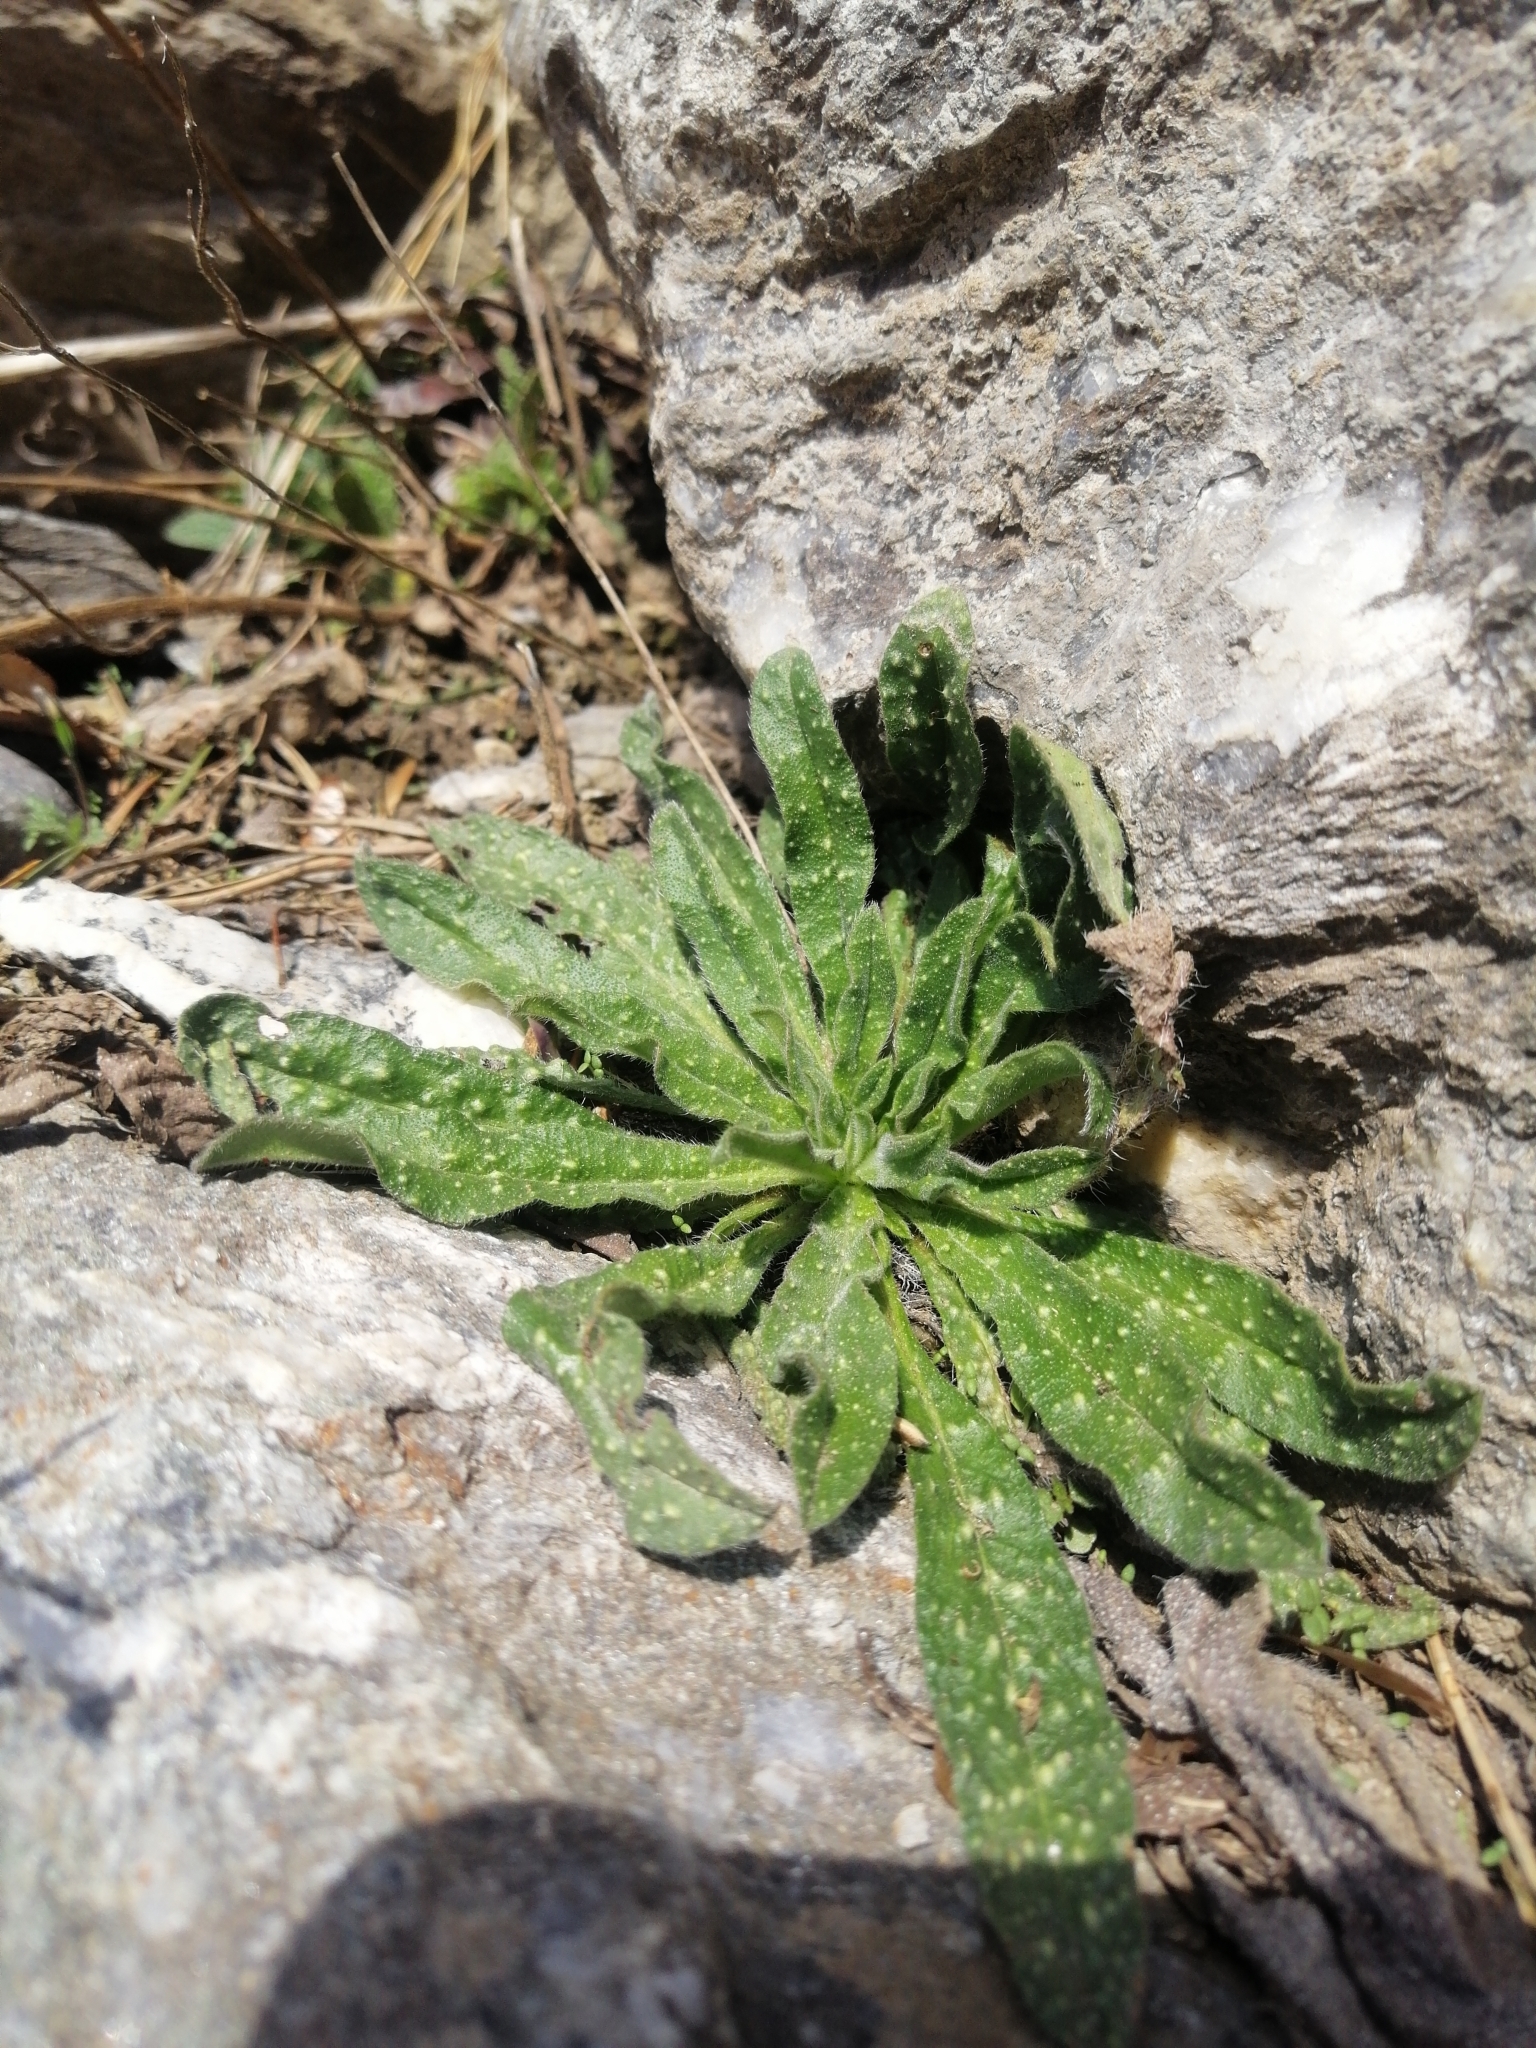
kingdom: Plantae
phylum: Tracheophyta
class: Magnoliopsida
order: Boraginales
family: Boraginaceae
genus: Echium
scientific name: Echium vulgare
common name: Common viper's bugloss
